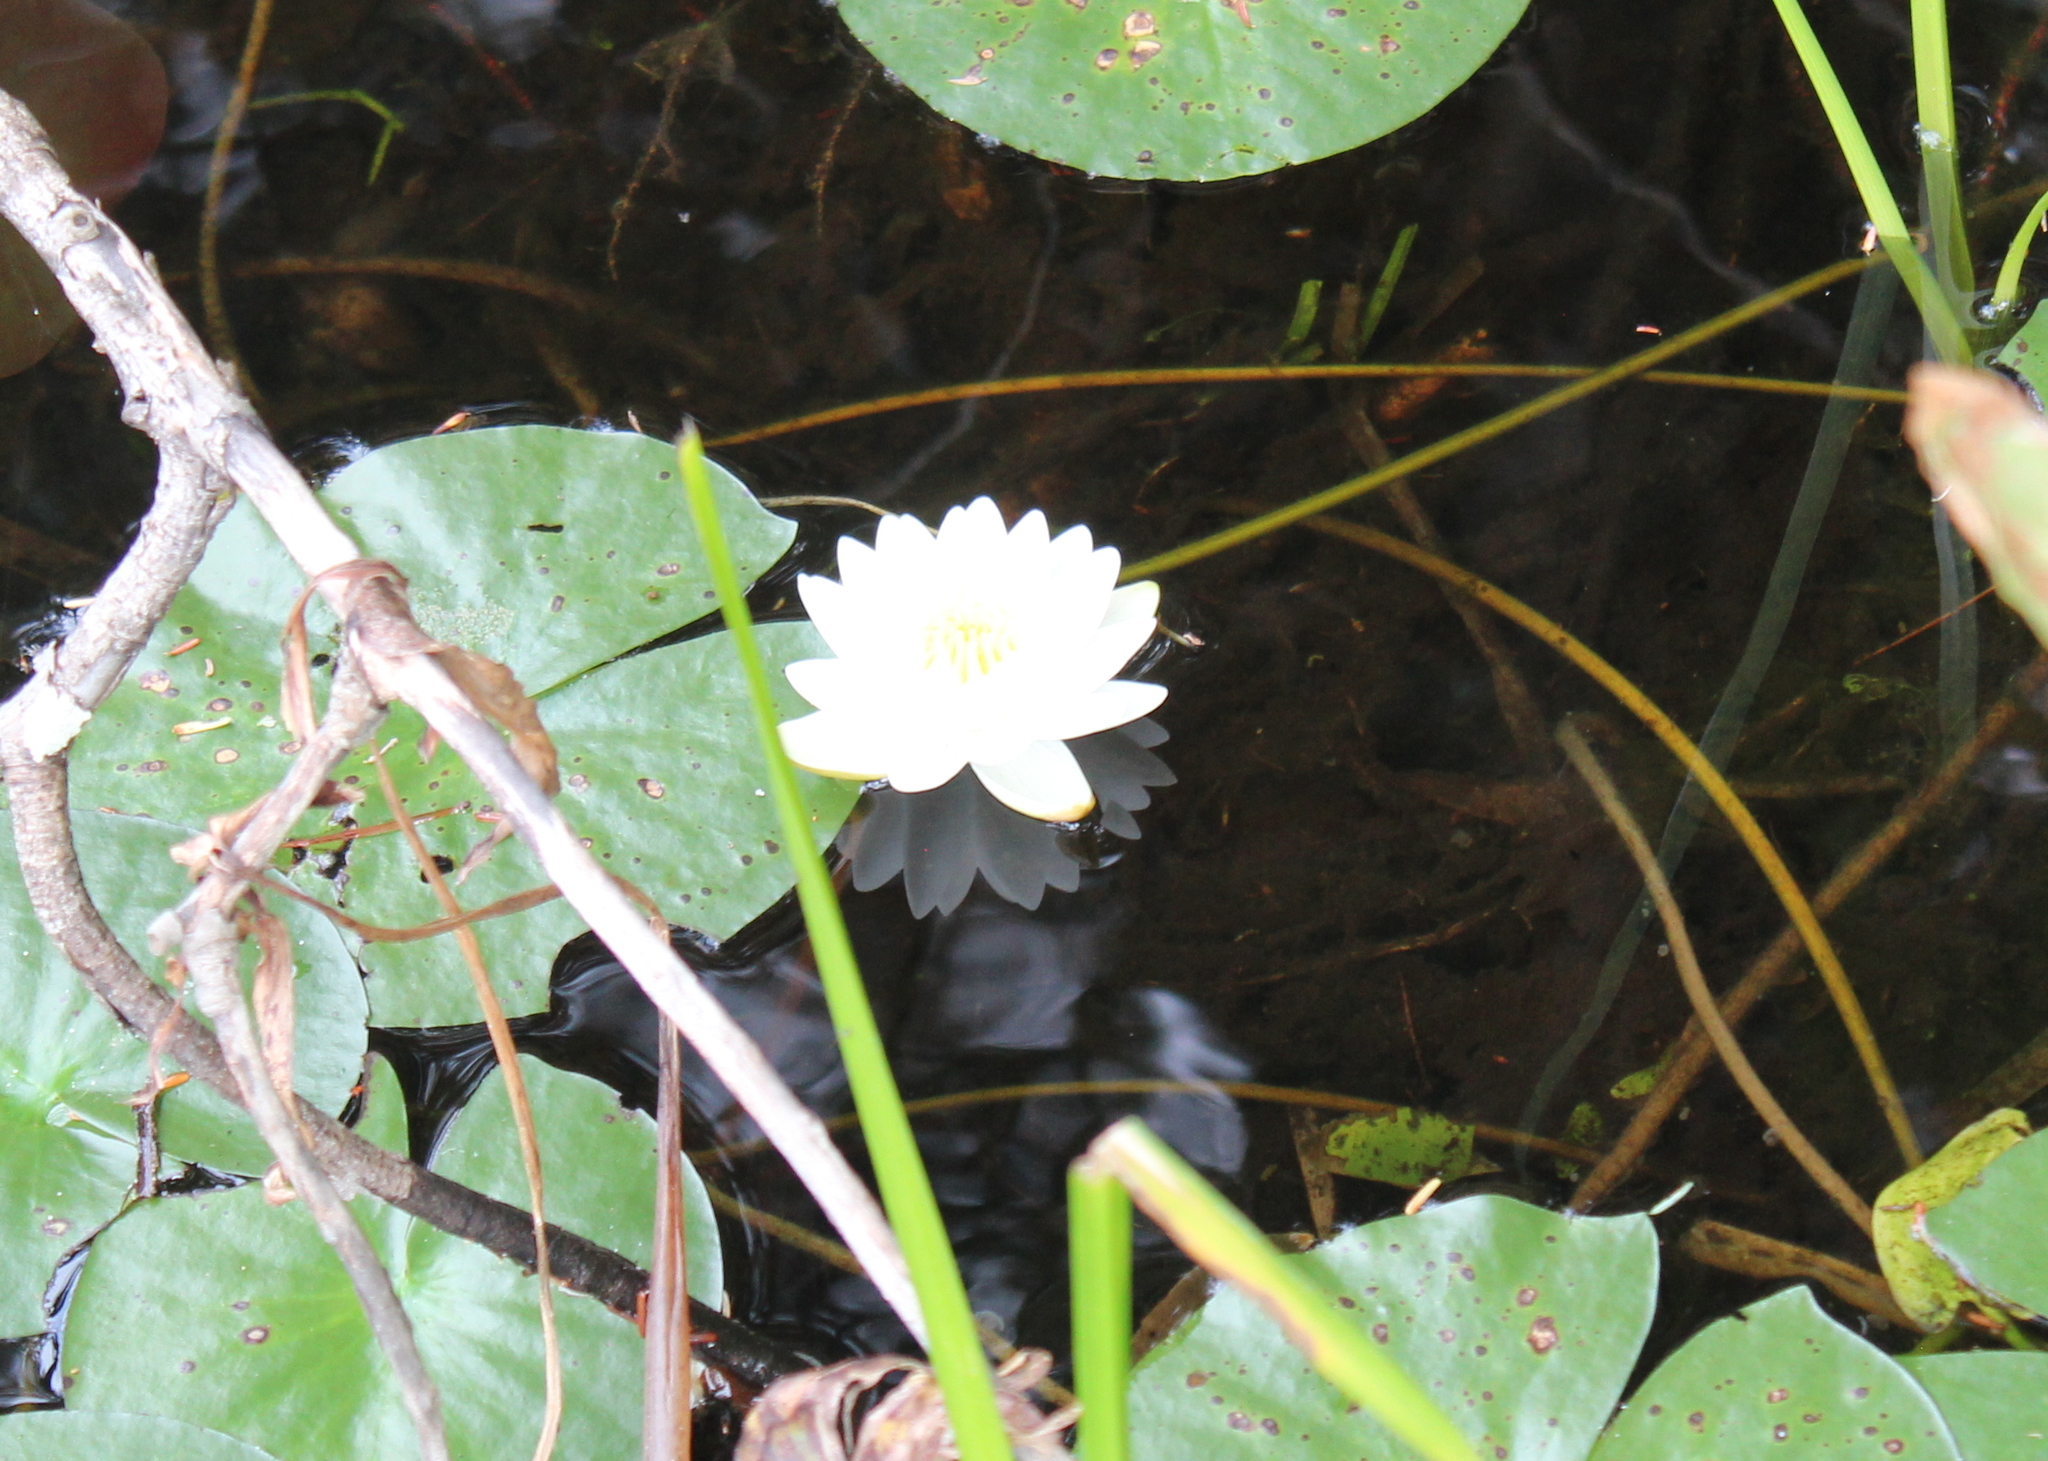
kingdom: Plantae
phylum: Tracheophyta
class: Magnoliopsida
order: Nymphaeales
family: Nymphaeaceae
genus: Nymphaea
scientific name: Nymphaea odorata
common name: Fragrant water-lily
